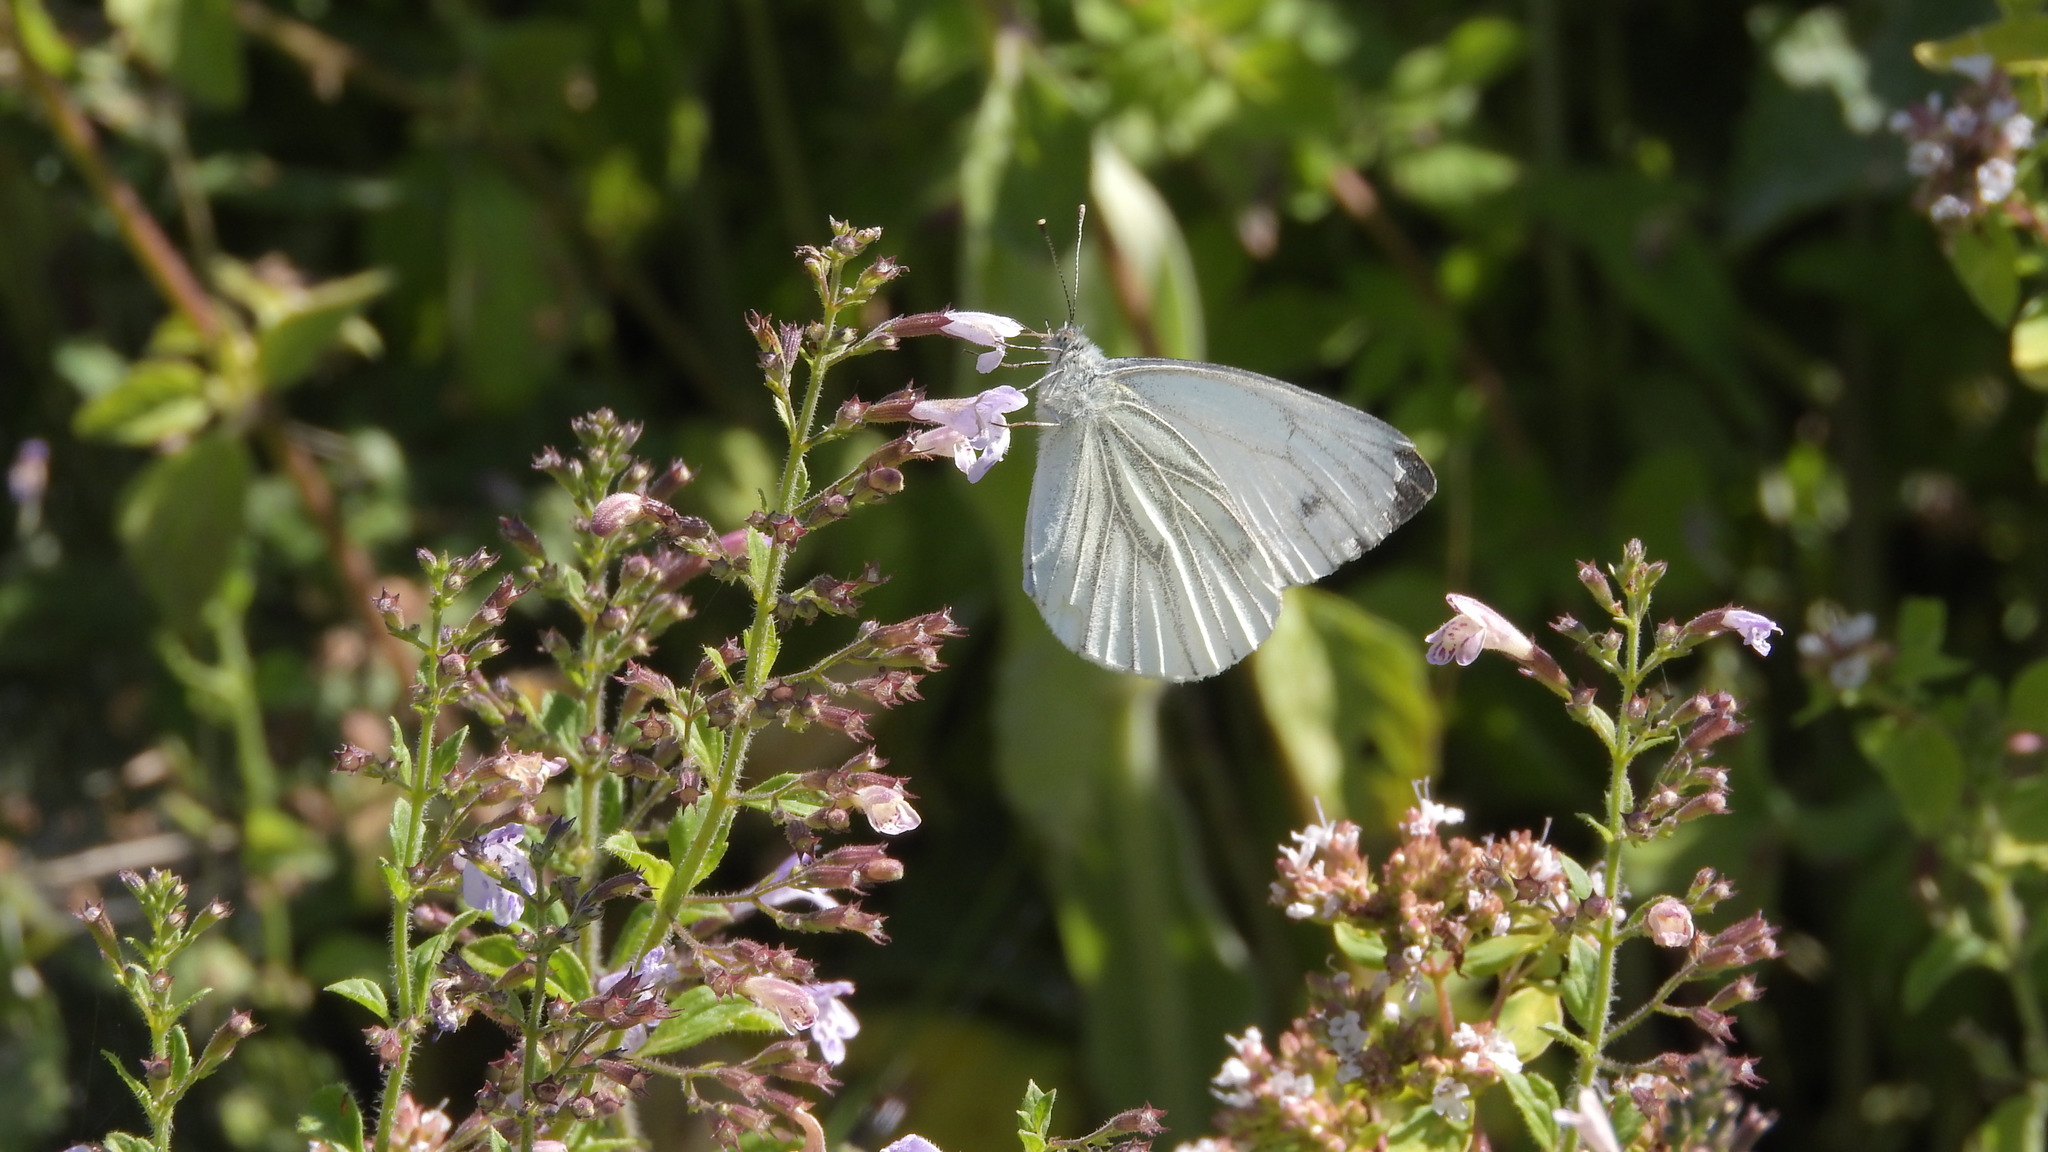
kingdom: Animalia
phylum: Arthropoda
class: Insecta
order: Lepidoptera
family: Pieridae
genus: Pieris
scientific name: Pieris napi
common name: Green-veined white
